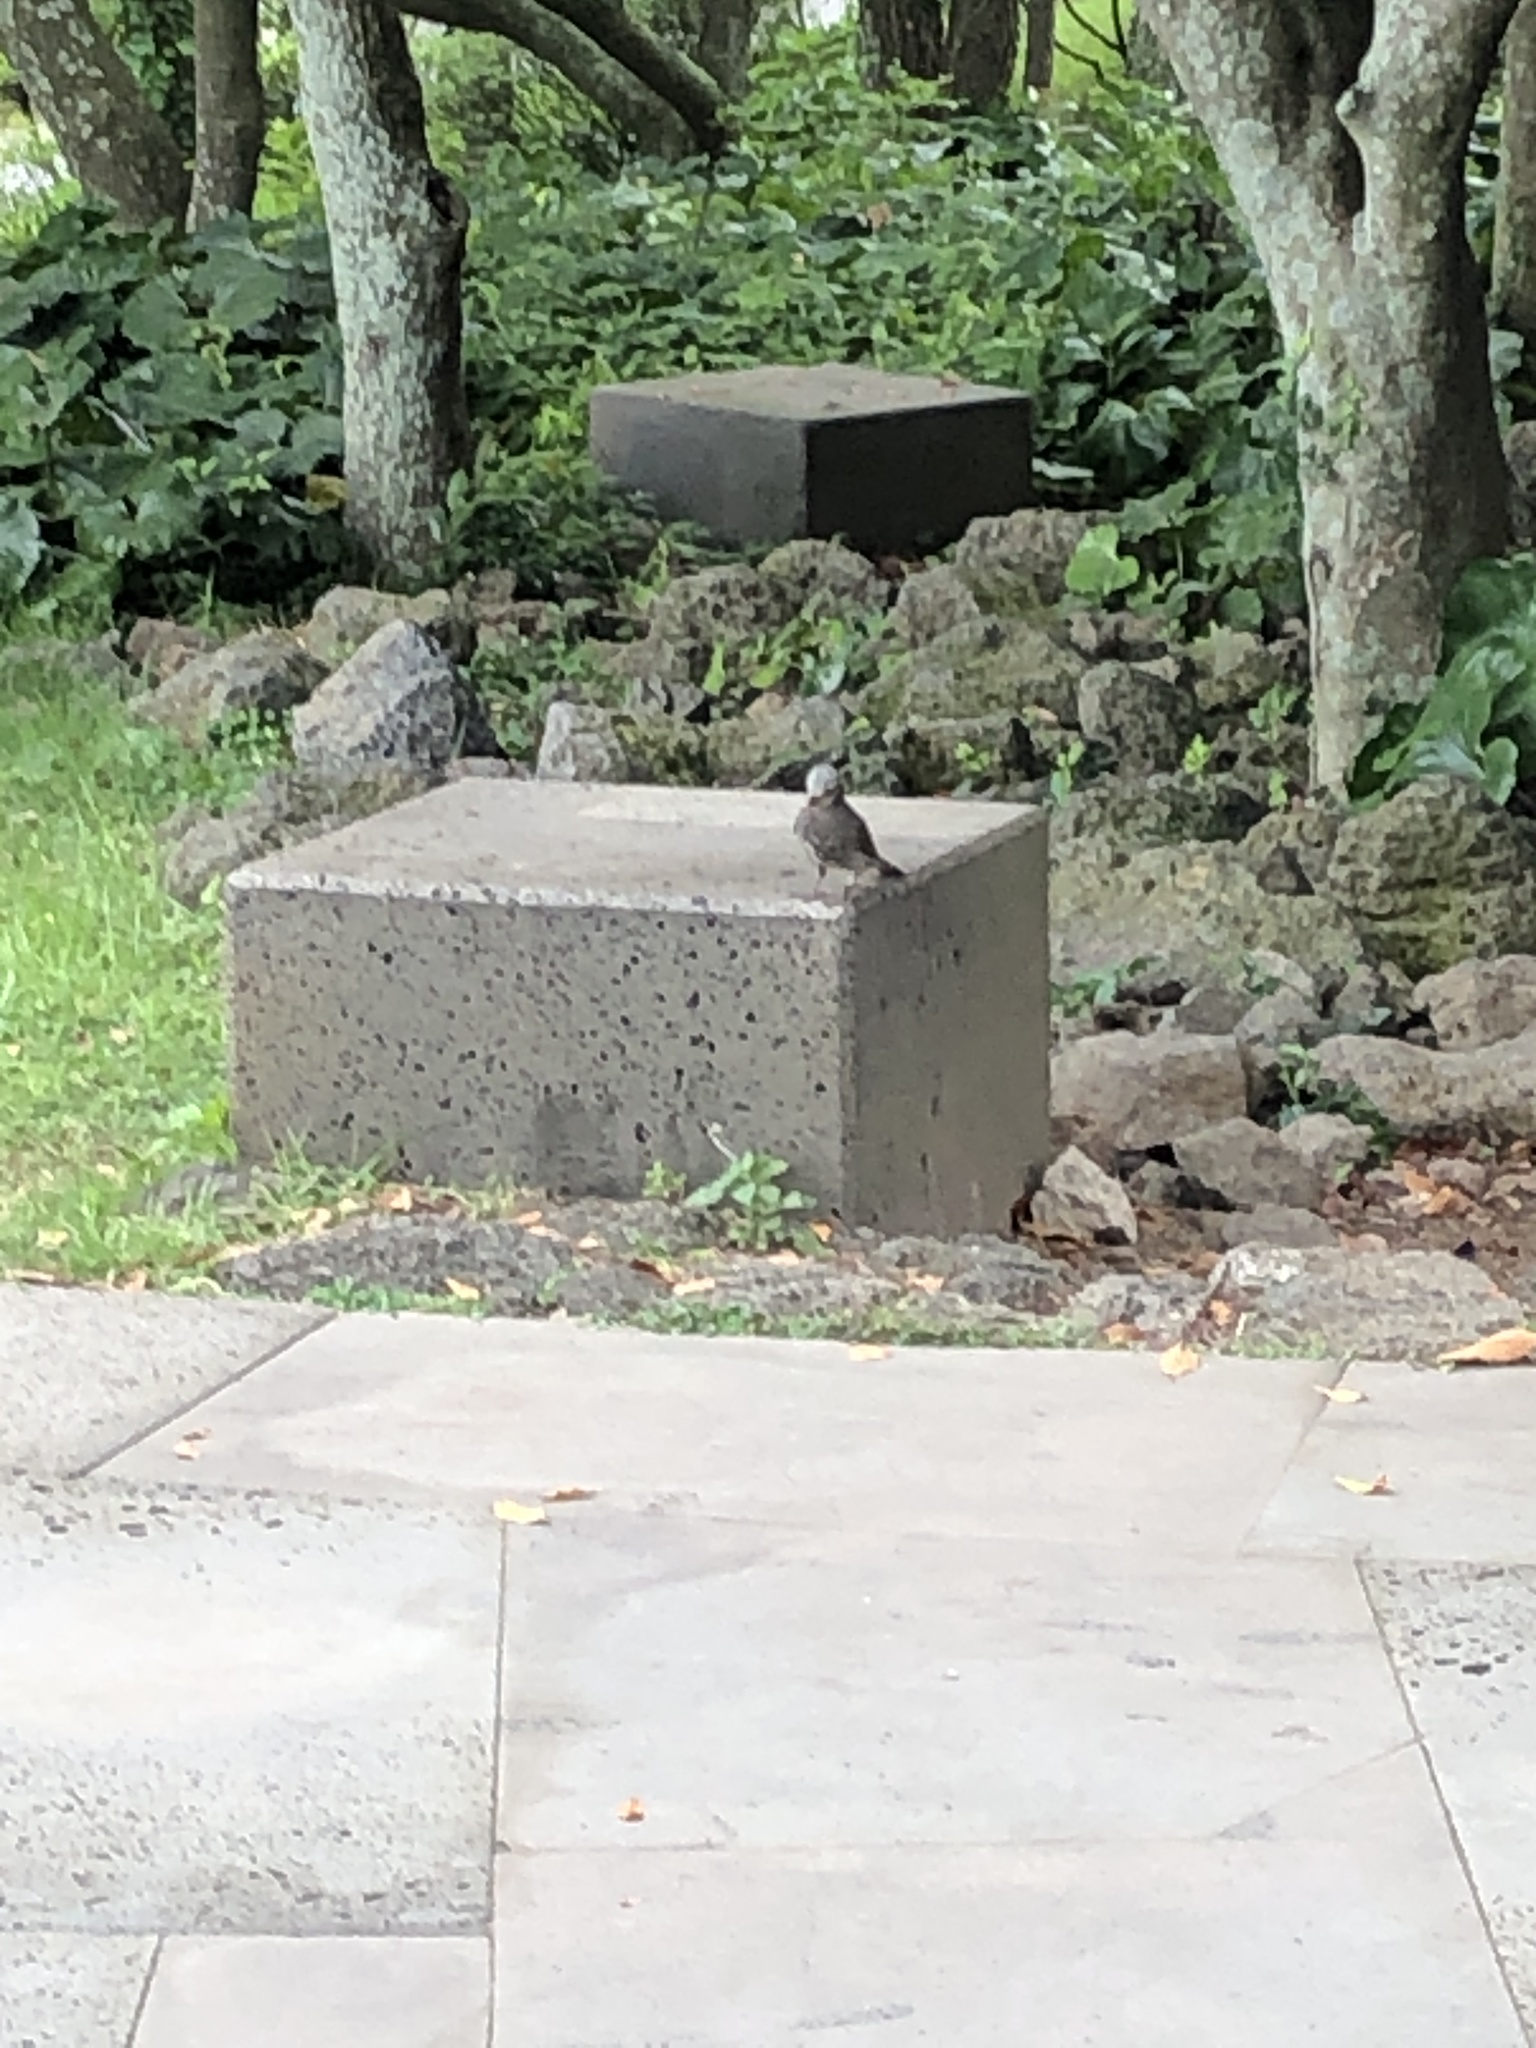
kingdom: Animalia
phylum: Chordata
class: Aves
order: Passeriformes
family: Pycnonotidae
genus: Hypsipetes
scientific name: Hypsipetes amaurotis
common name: Brown-eared bulbul
